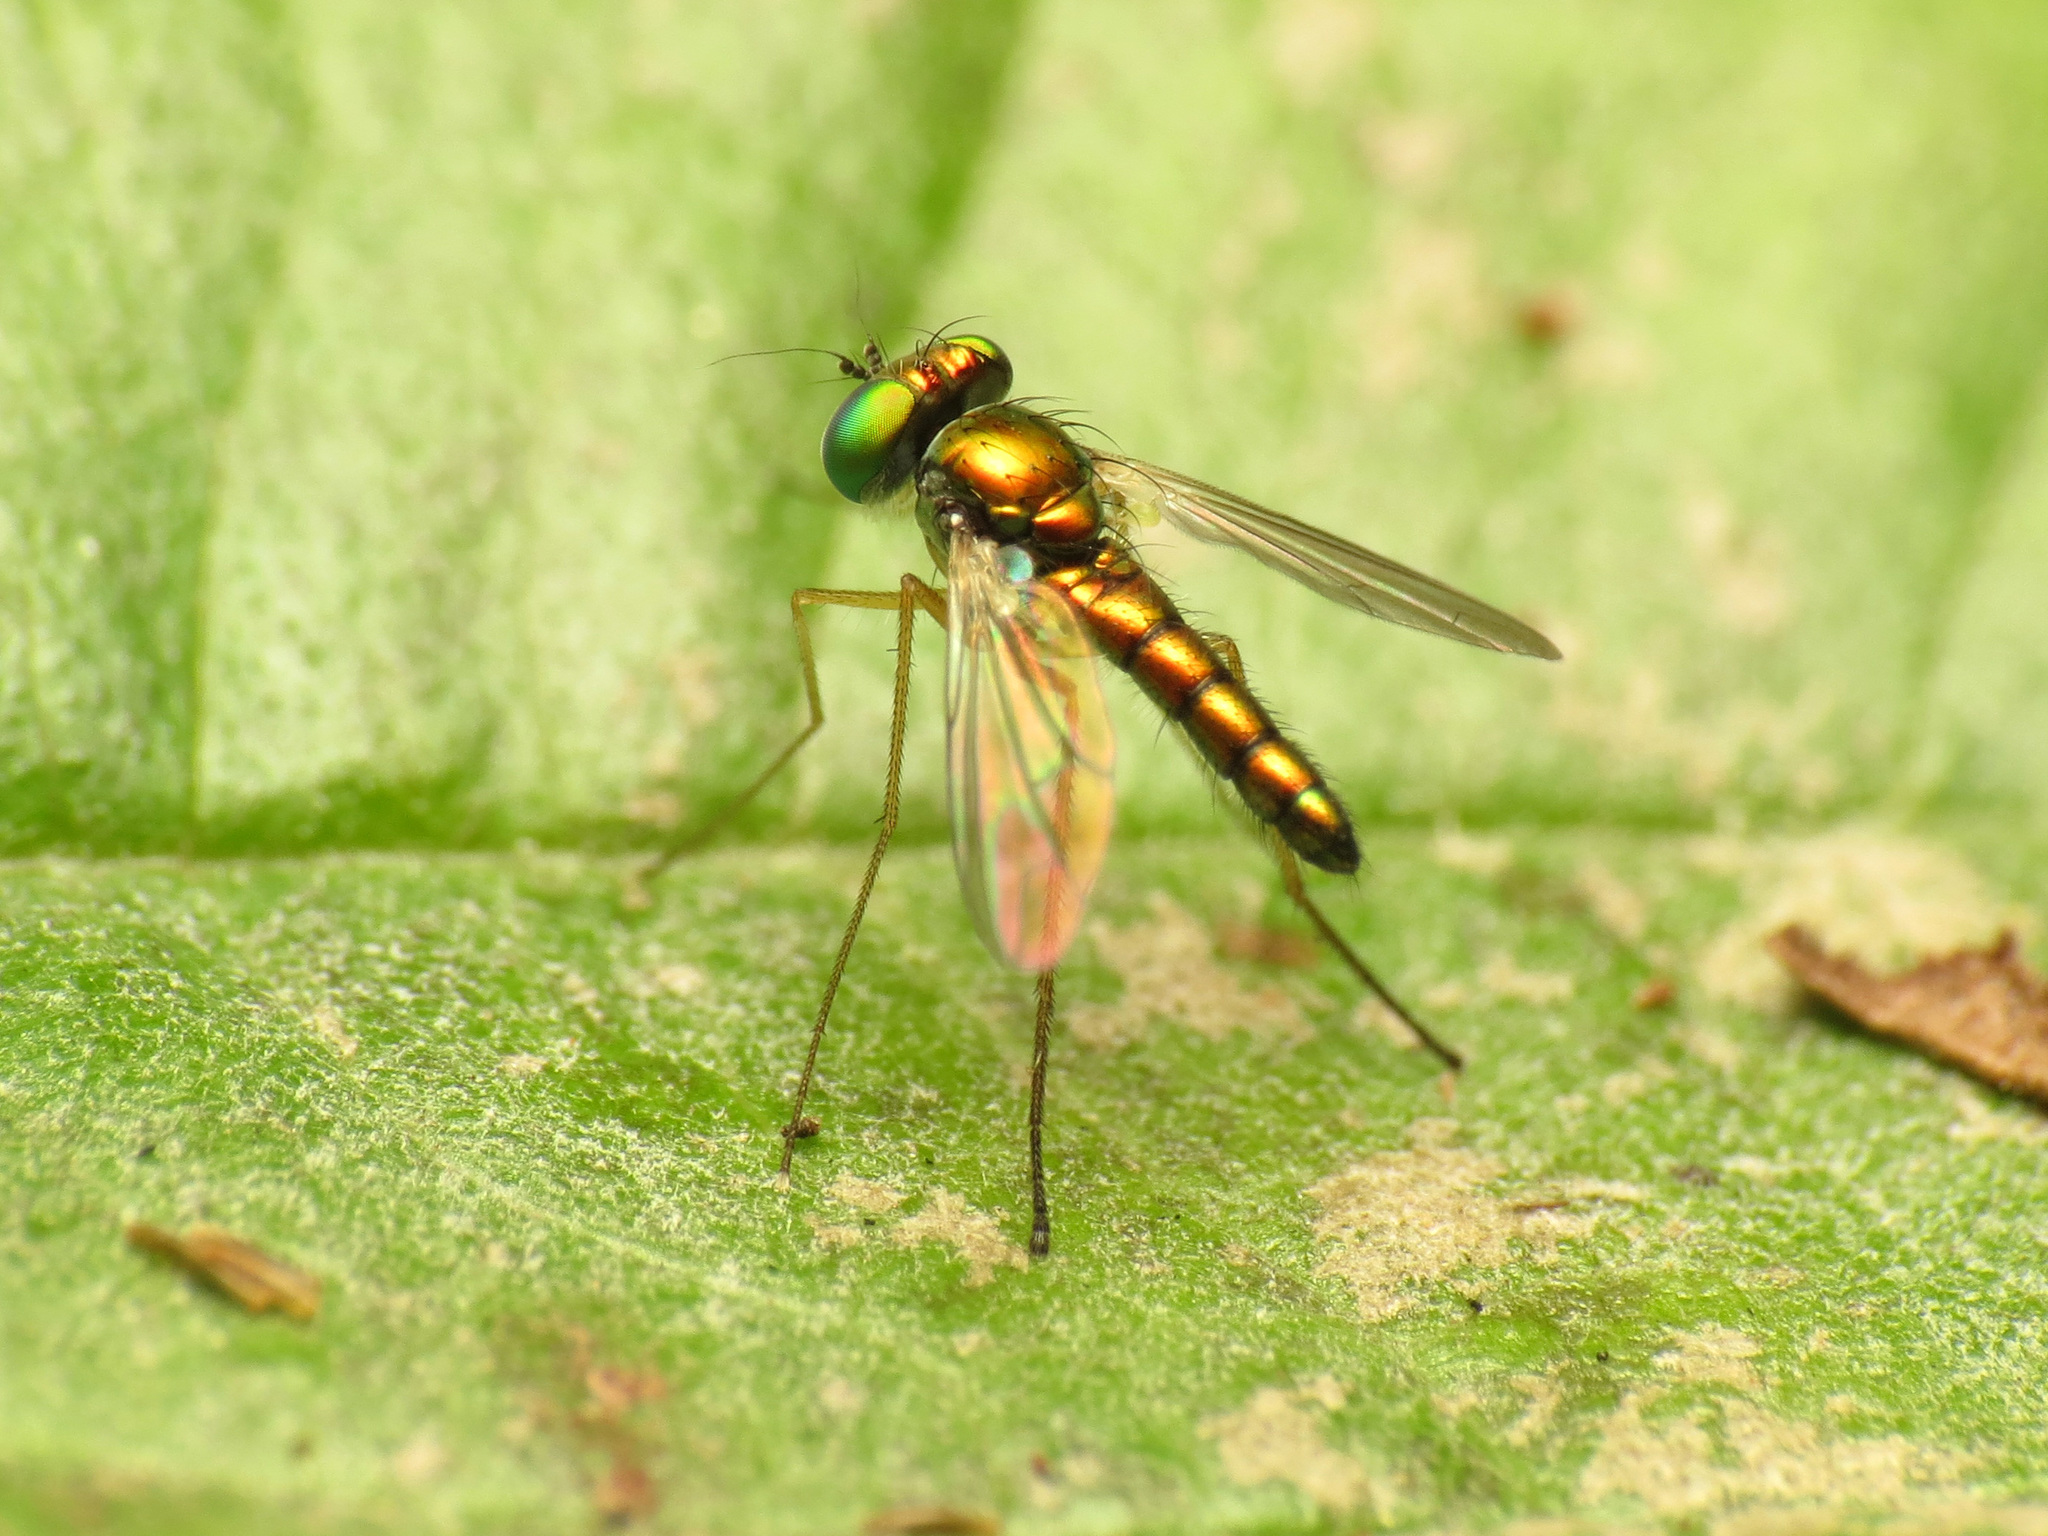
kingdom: Animalia
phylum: Arthropoda
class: Insecta
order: Diptera
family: Dolichopodidae
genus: Condylostylus
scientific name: Condylostylus banksii
